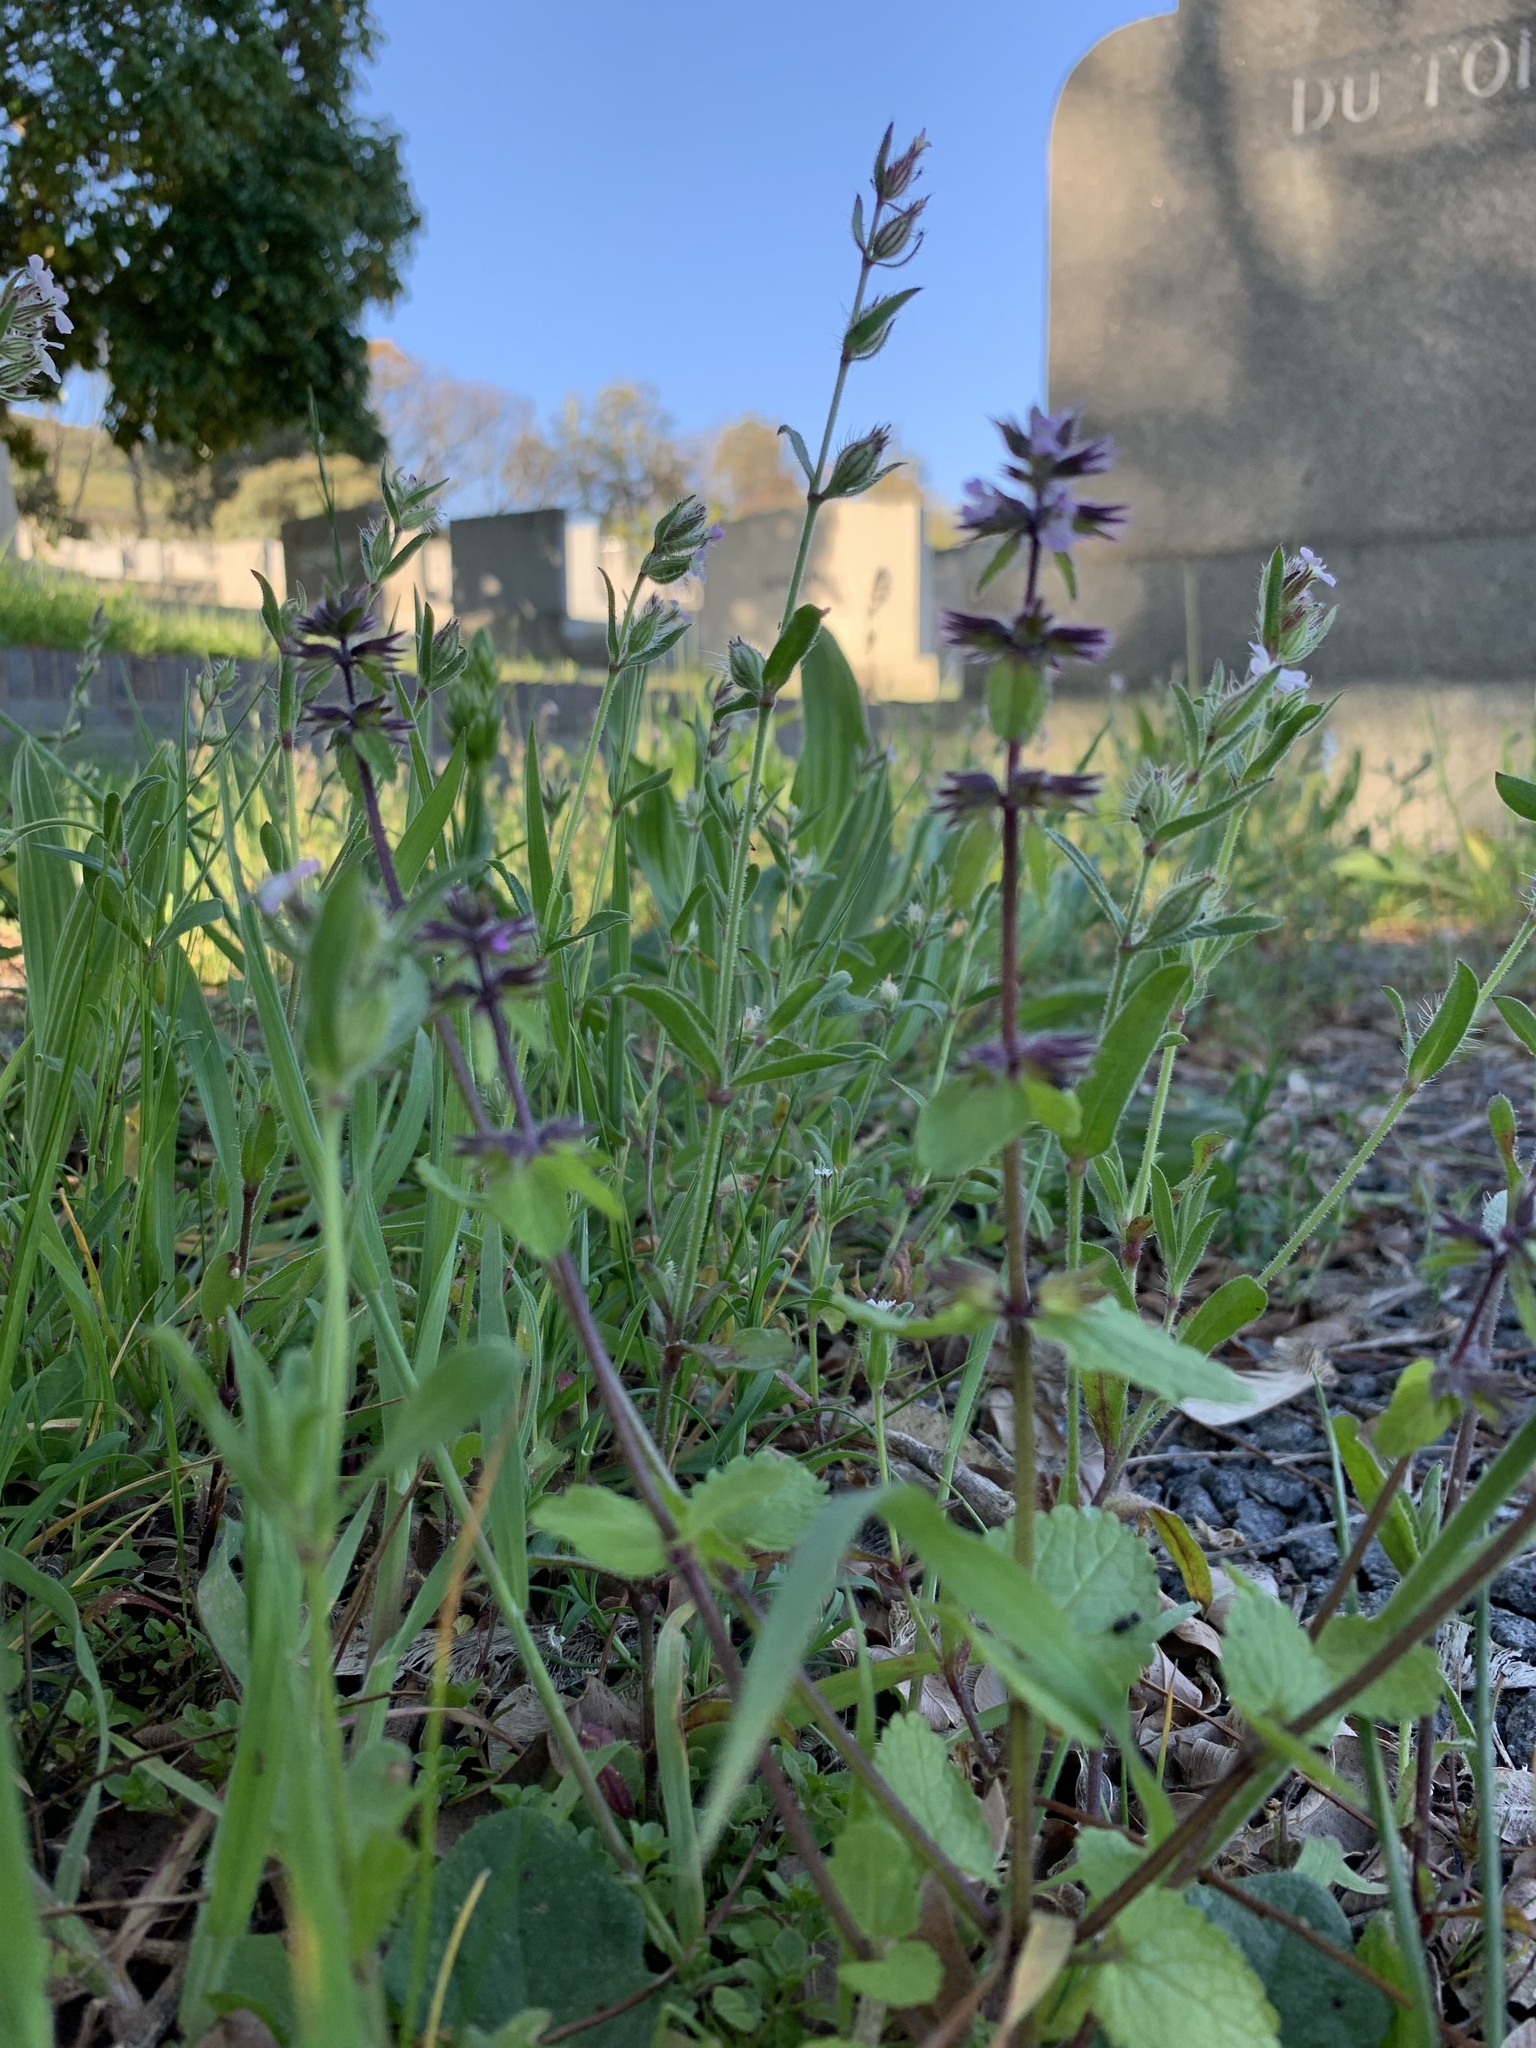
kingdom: Plantae
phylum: Tracheophyta
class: Magnoliopsida
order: Lamiales
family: Lamiaceae
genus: Stachys
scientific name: Stachys arvensis
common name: Field woundwort
